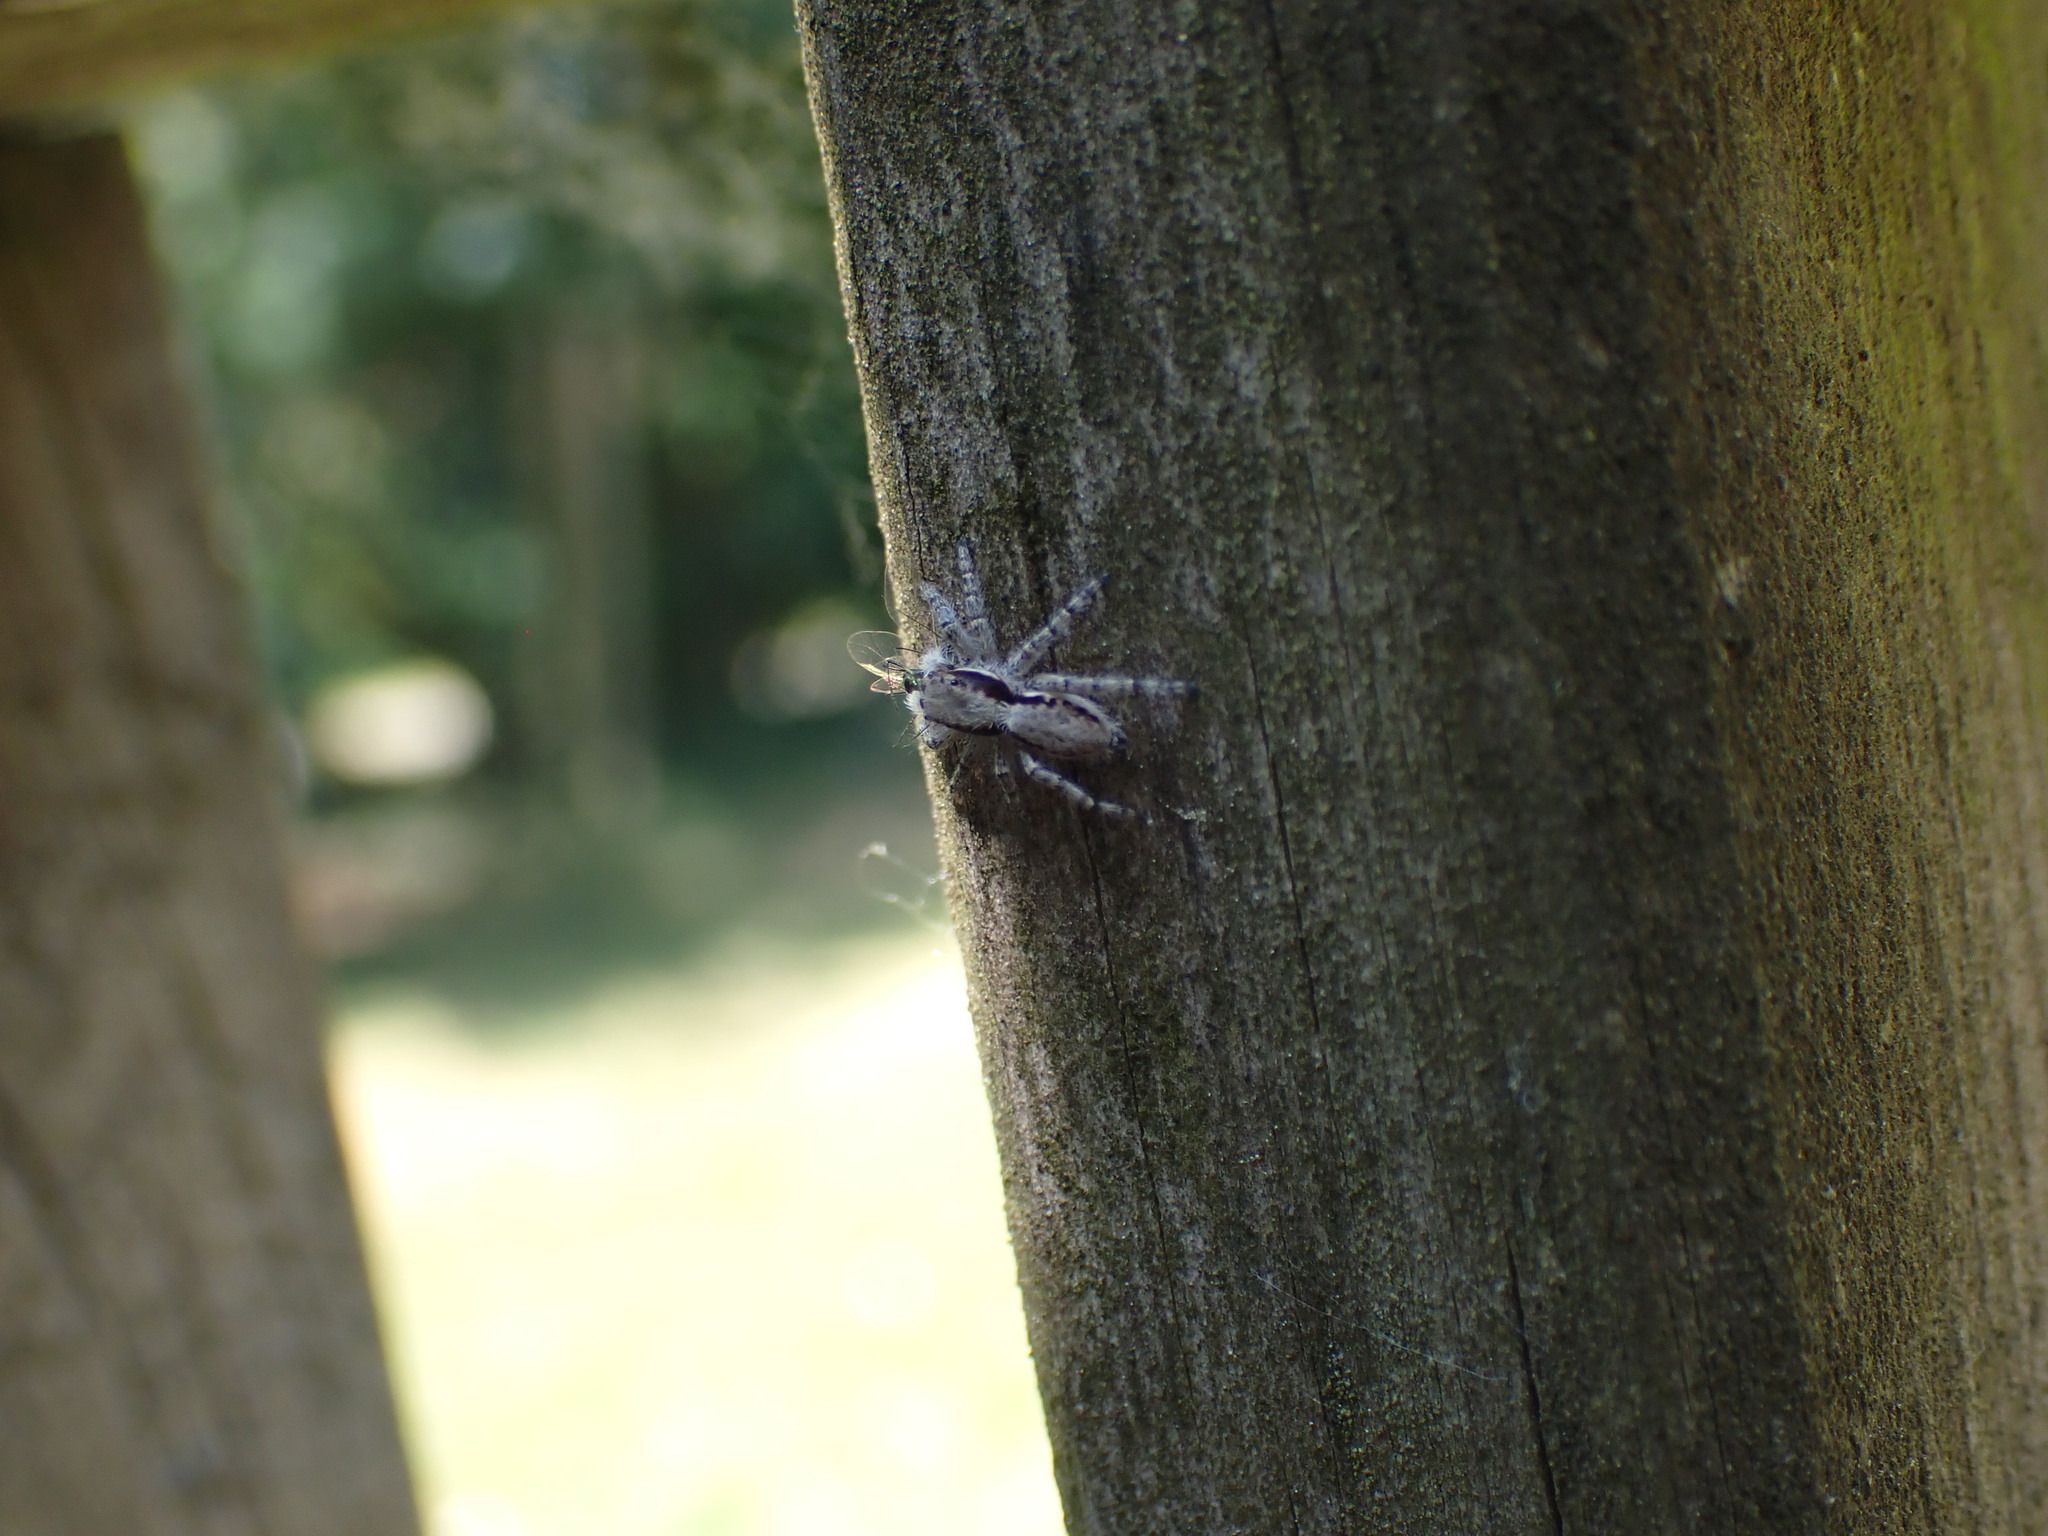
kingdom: Animalia
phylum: Arthropoda
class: Arachnida
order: Araneae
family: Salticidae
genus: Menemerus
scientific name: Menemerus taeniatus
